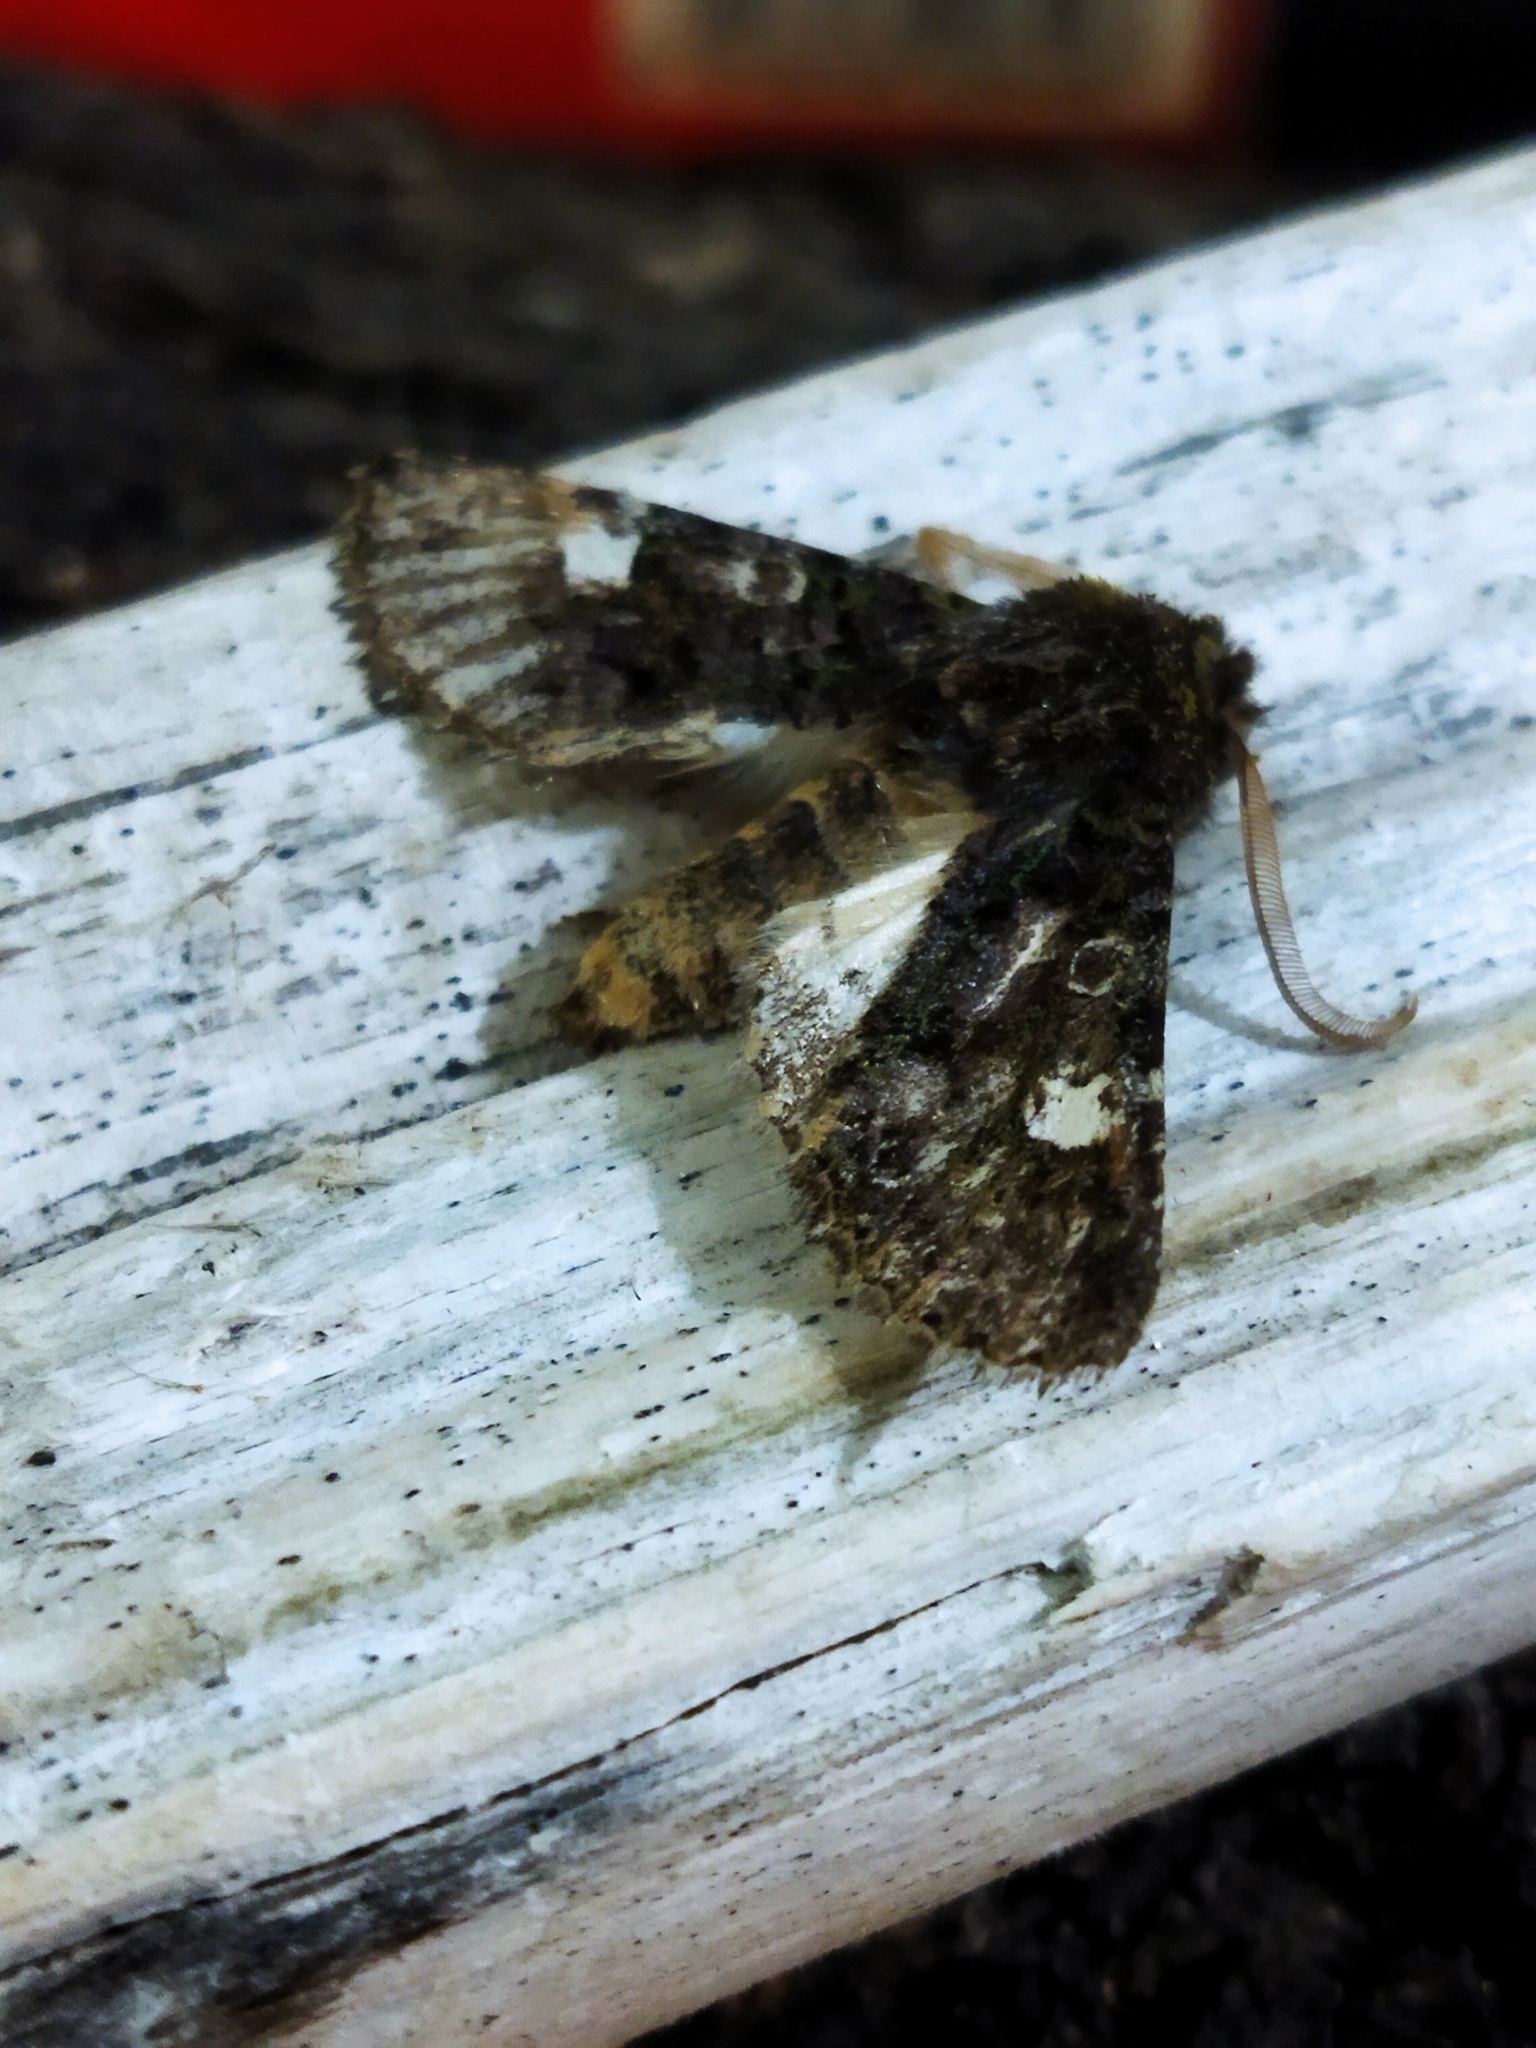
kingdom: Animalia
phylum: Arthropoda
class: Insecta
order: Lepidoptera
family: Noctuidae
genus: Valeria
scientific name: Valeria oleagina
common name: Green-brindled dot
